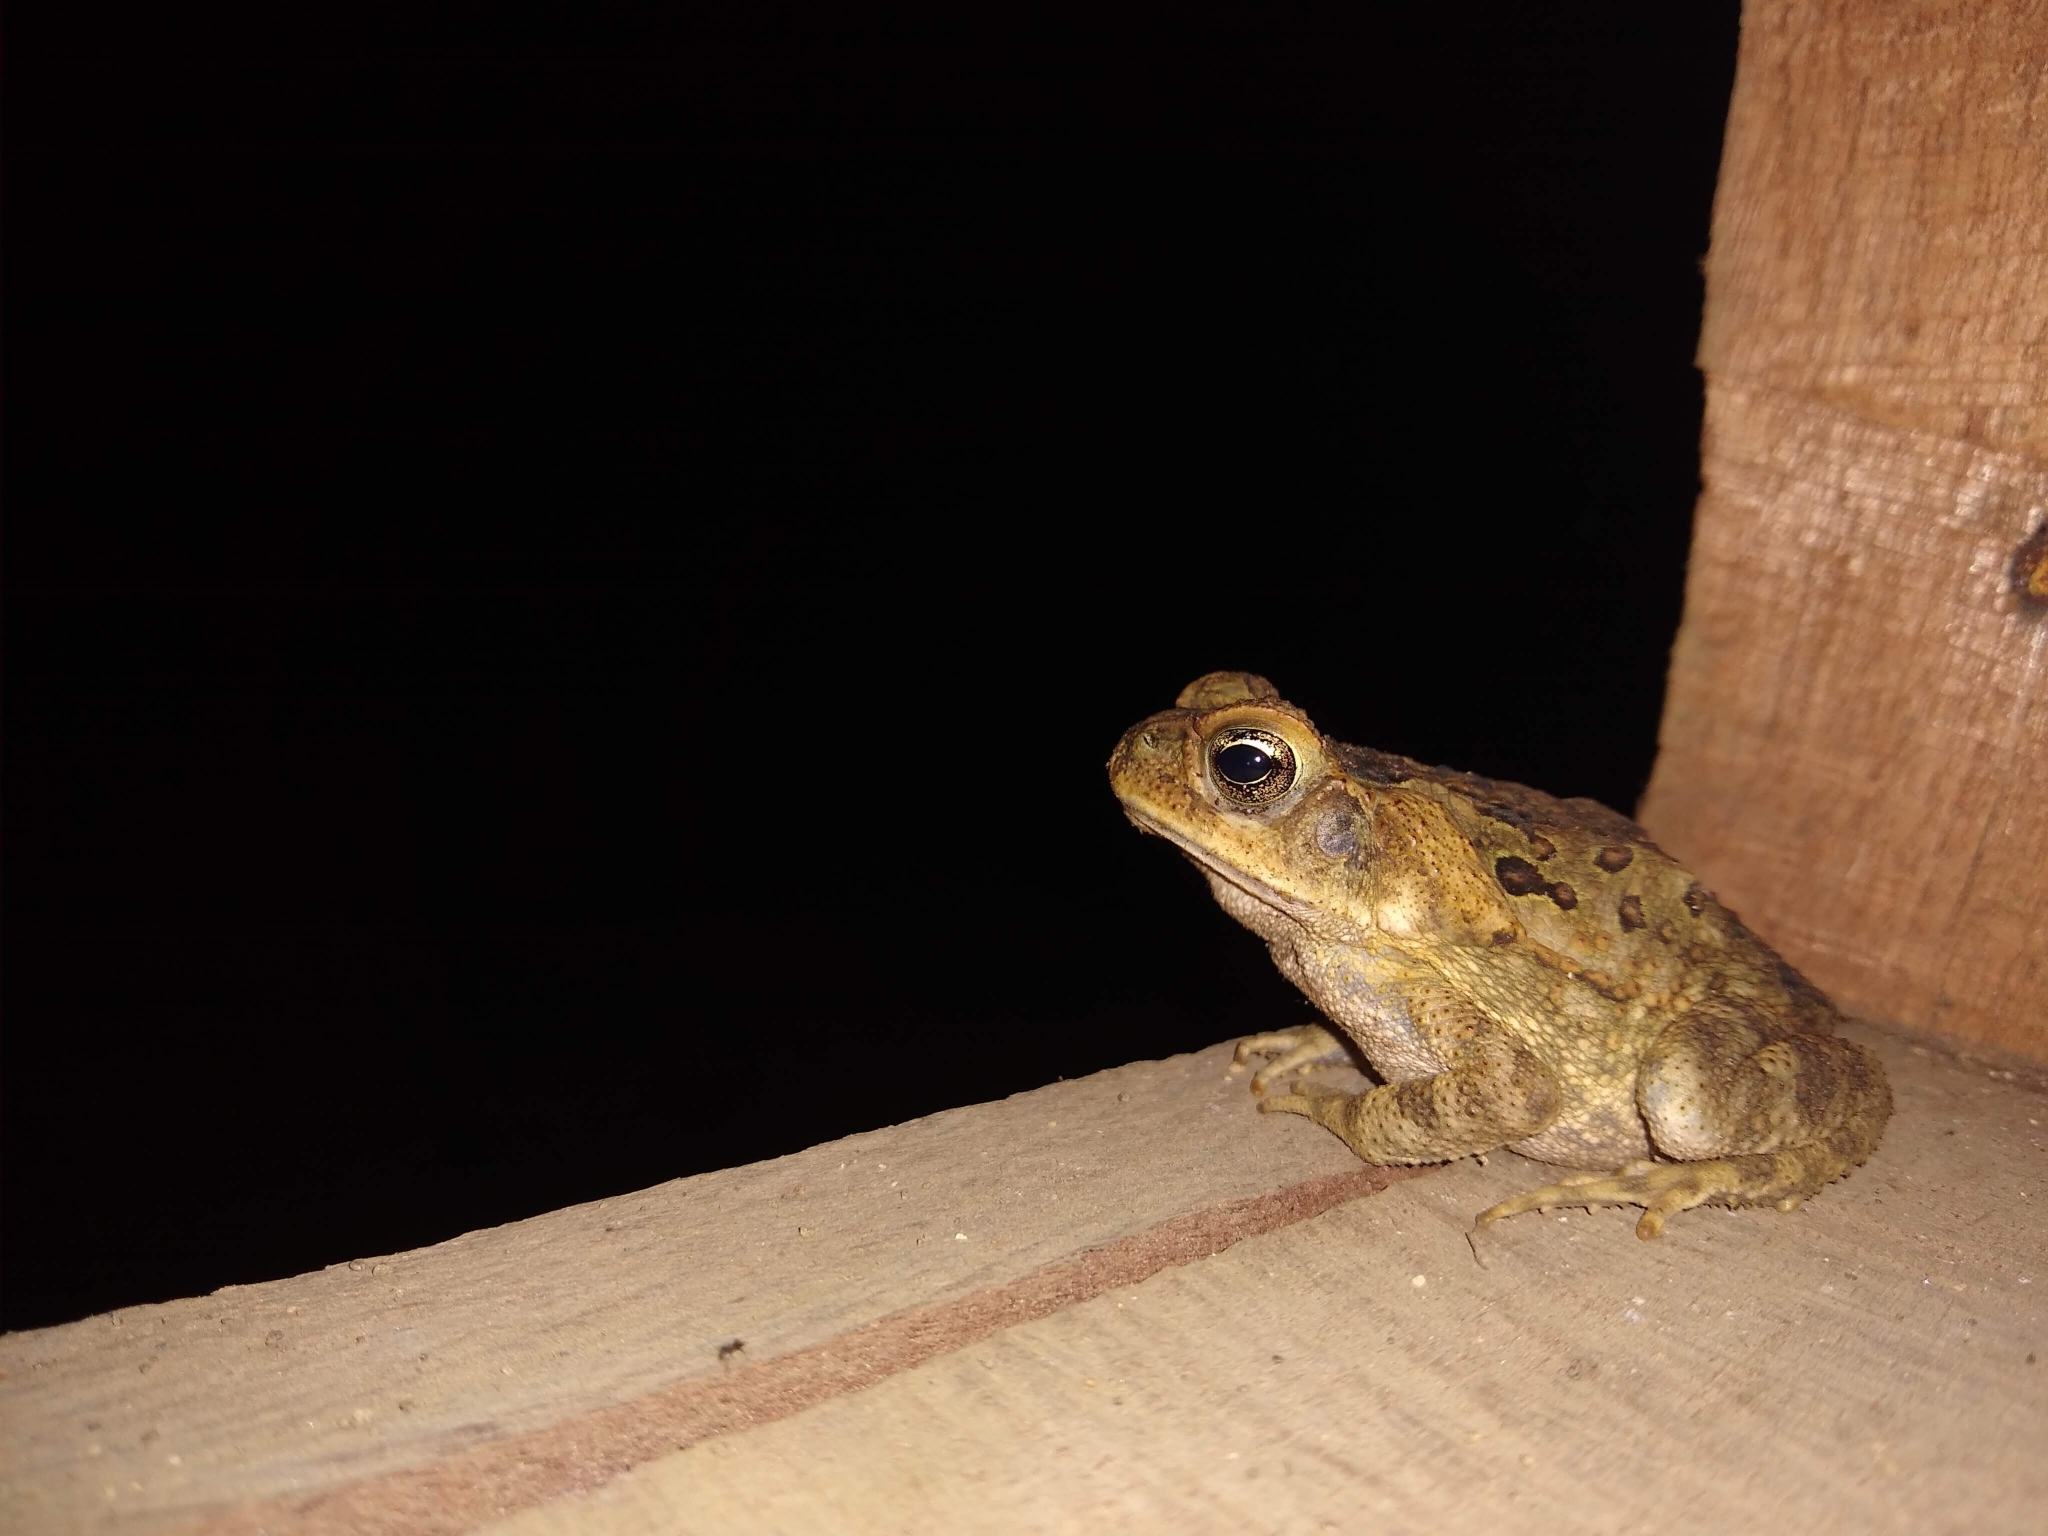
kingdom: Animalia
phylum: Chordata
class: Amphibia
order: Anura
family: Bufonidae
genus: Rhinella
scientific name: Rhinella horribilis
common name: Mesoamerican cane toad
